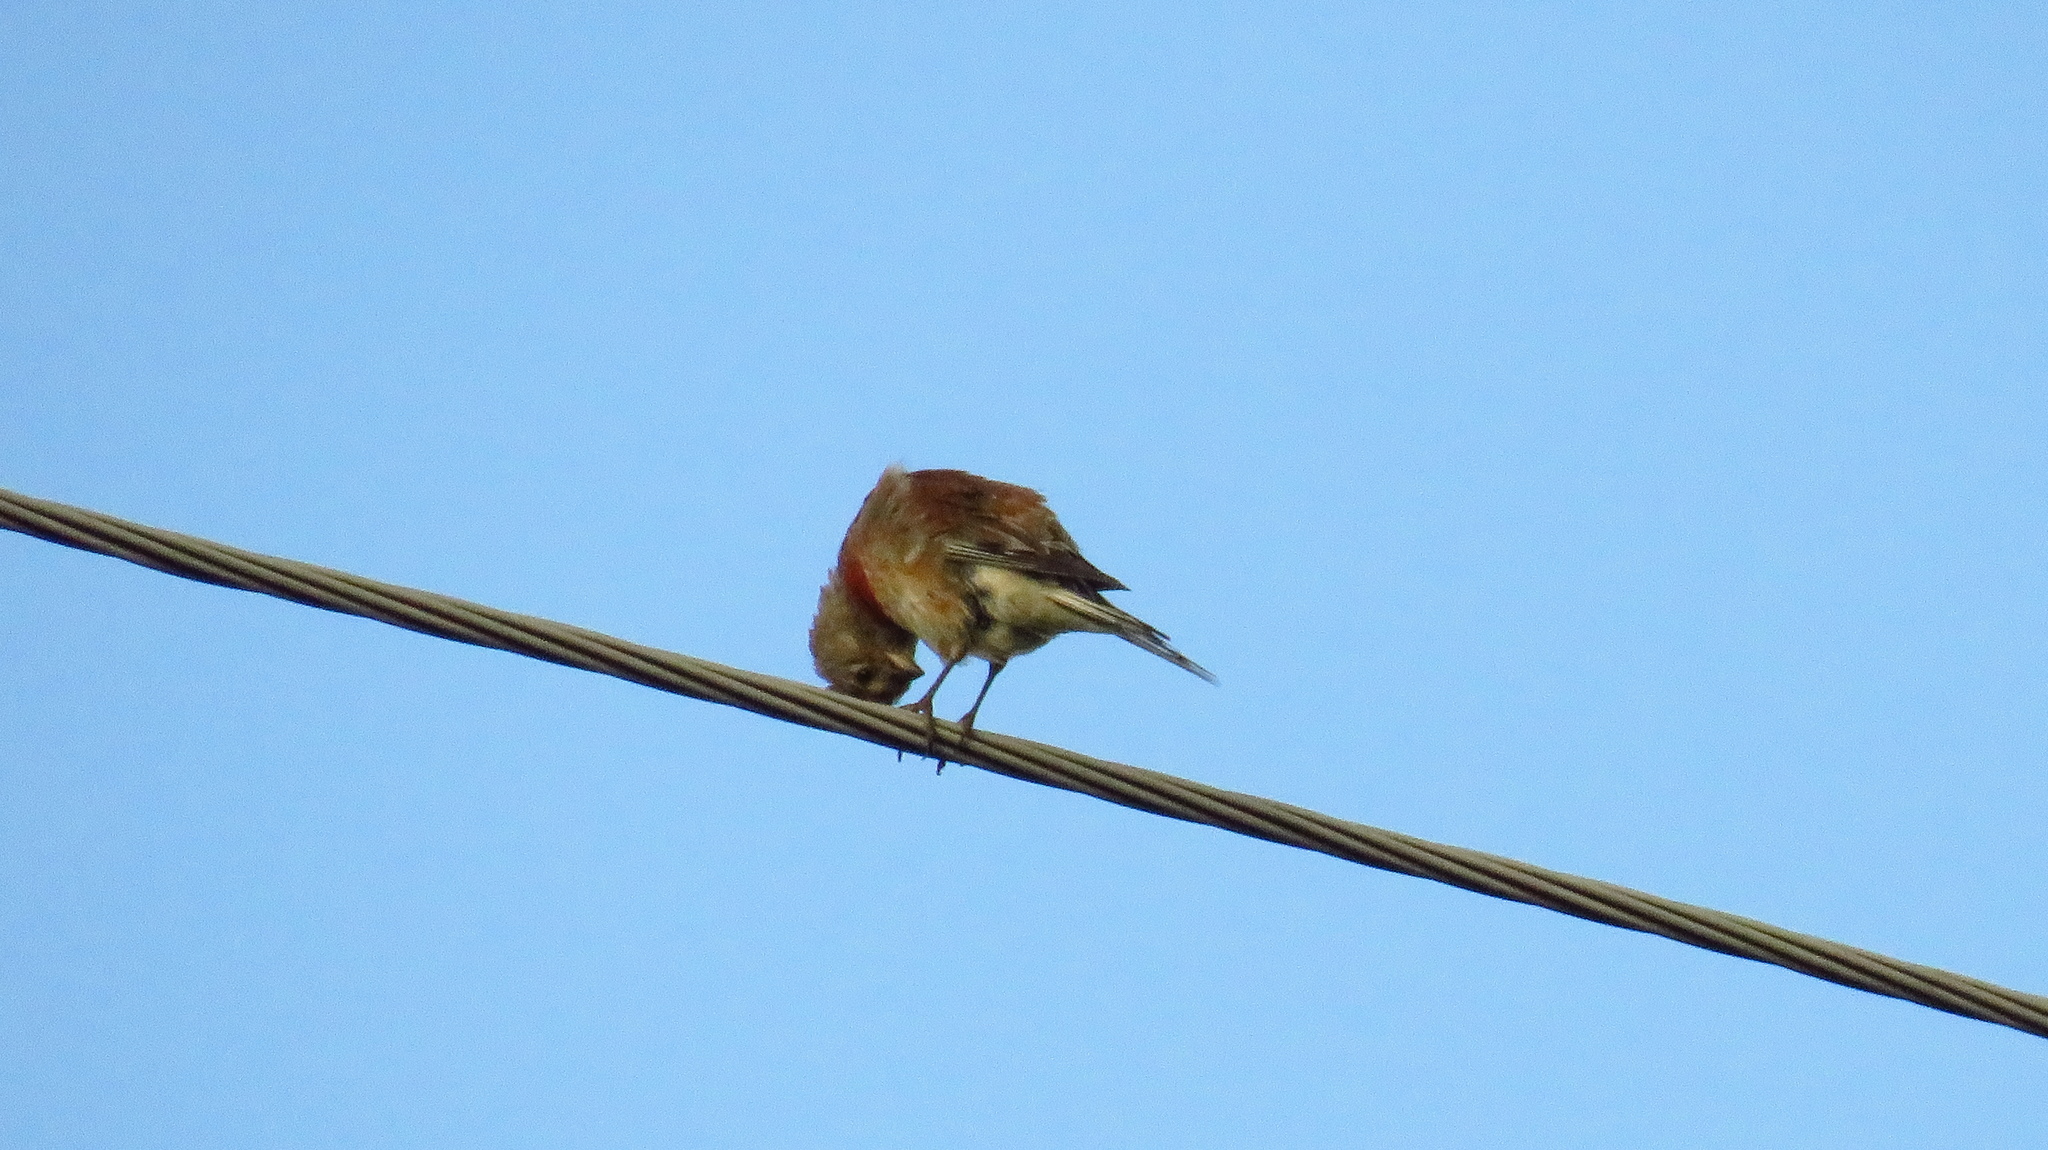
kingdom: Animalia
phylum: Chordata
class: Aves
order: Passeriformes
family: Fringillidae
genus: Linaria
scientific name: Linaria cannabina
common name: Common linnet
